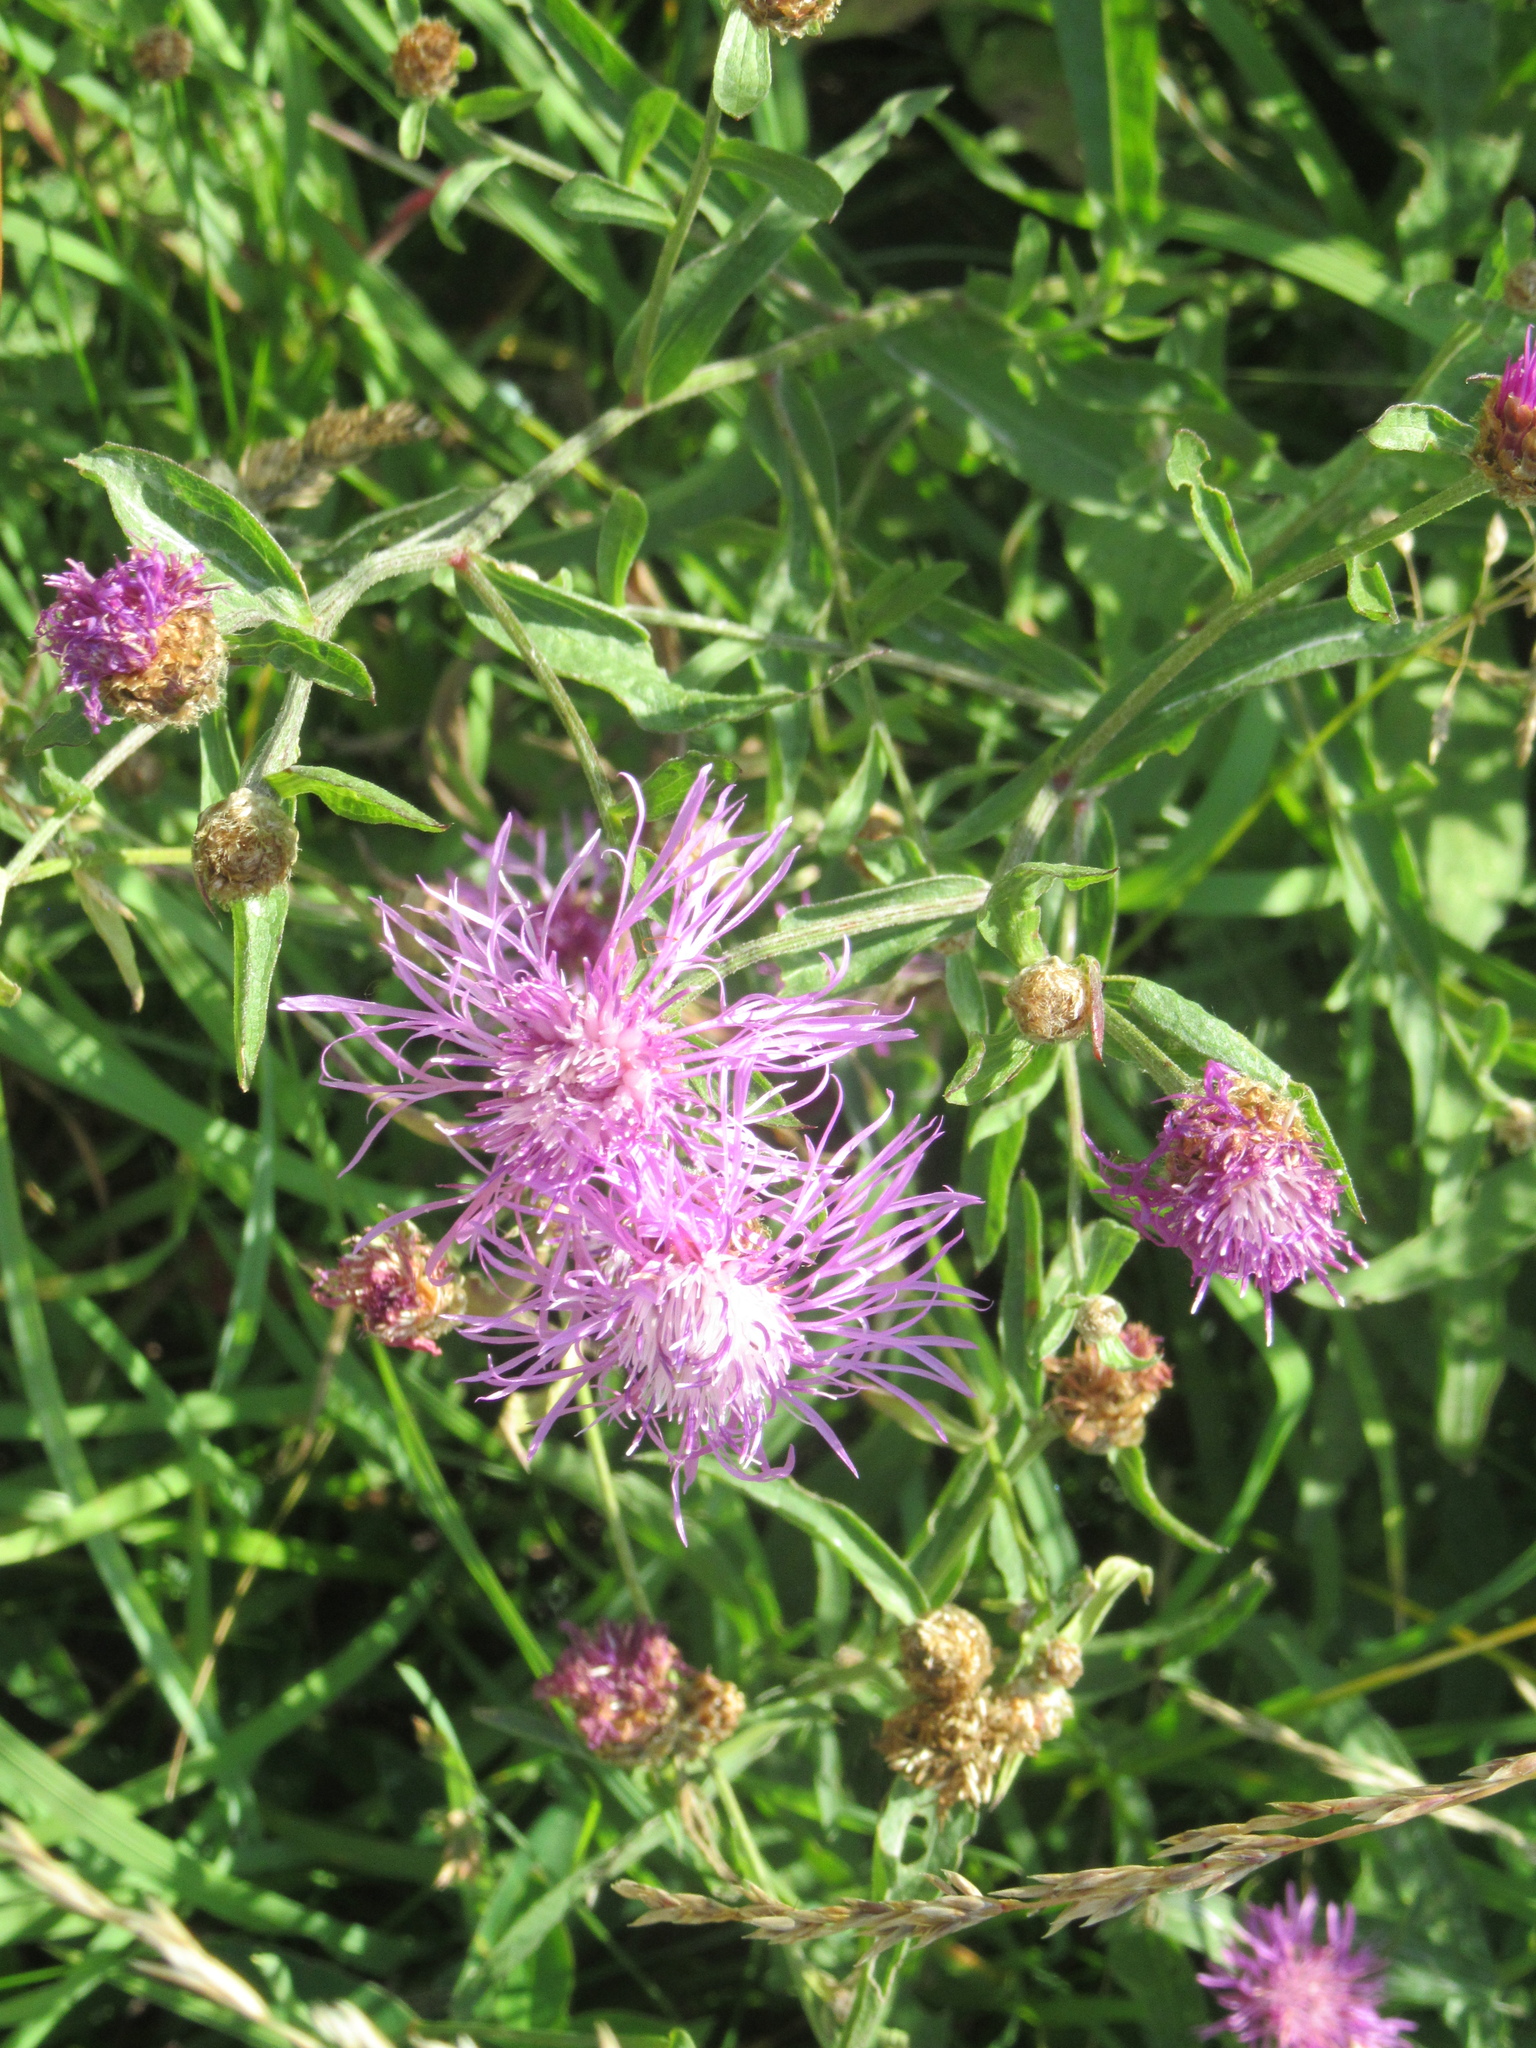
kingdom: Plantae
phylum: Tracheophyta
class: Magnoliopsida
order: Asterales
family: Asteraceae
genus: Centaurea
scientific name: Centaurea jacea
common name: Brown knapweed
